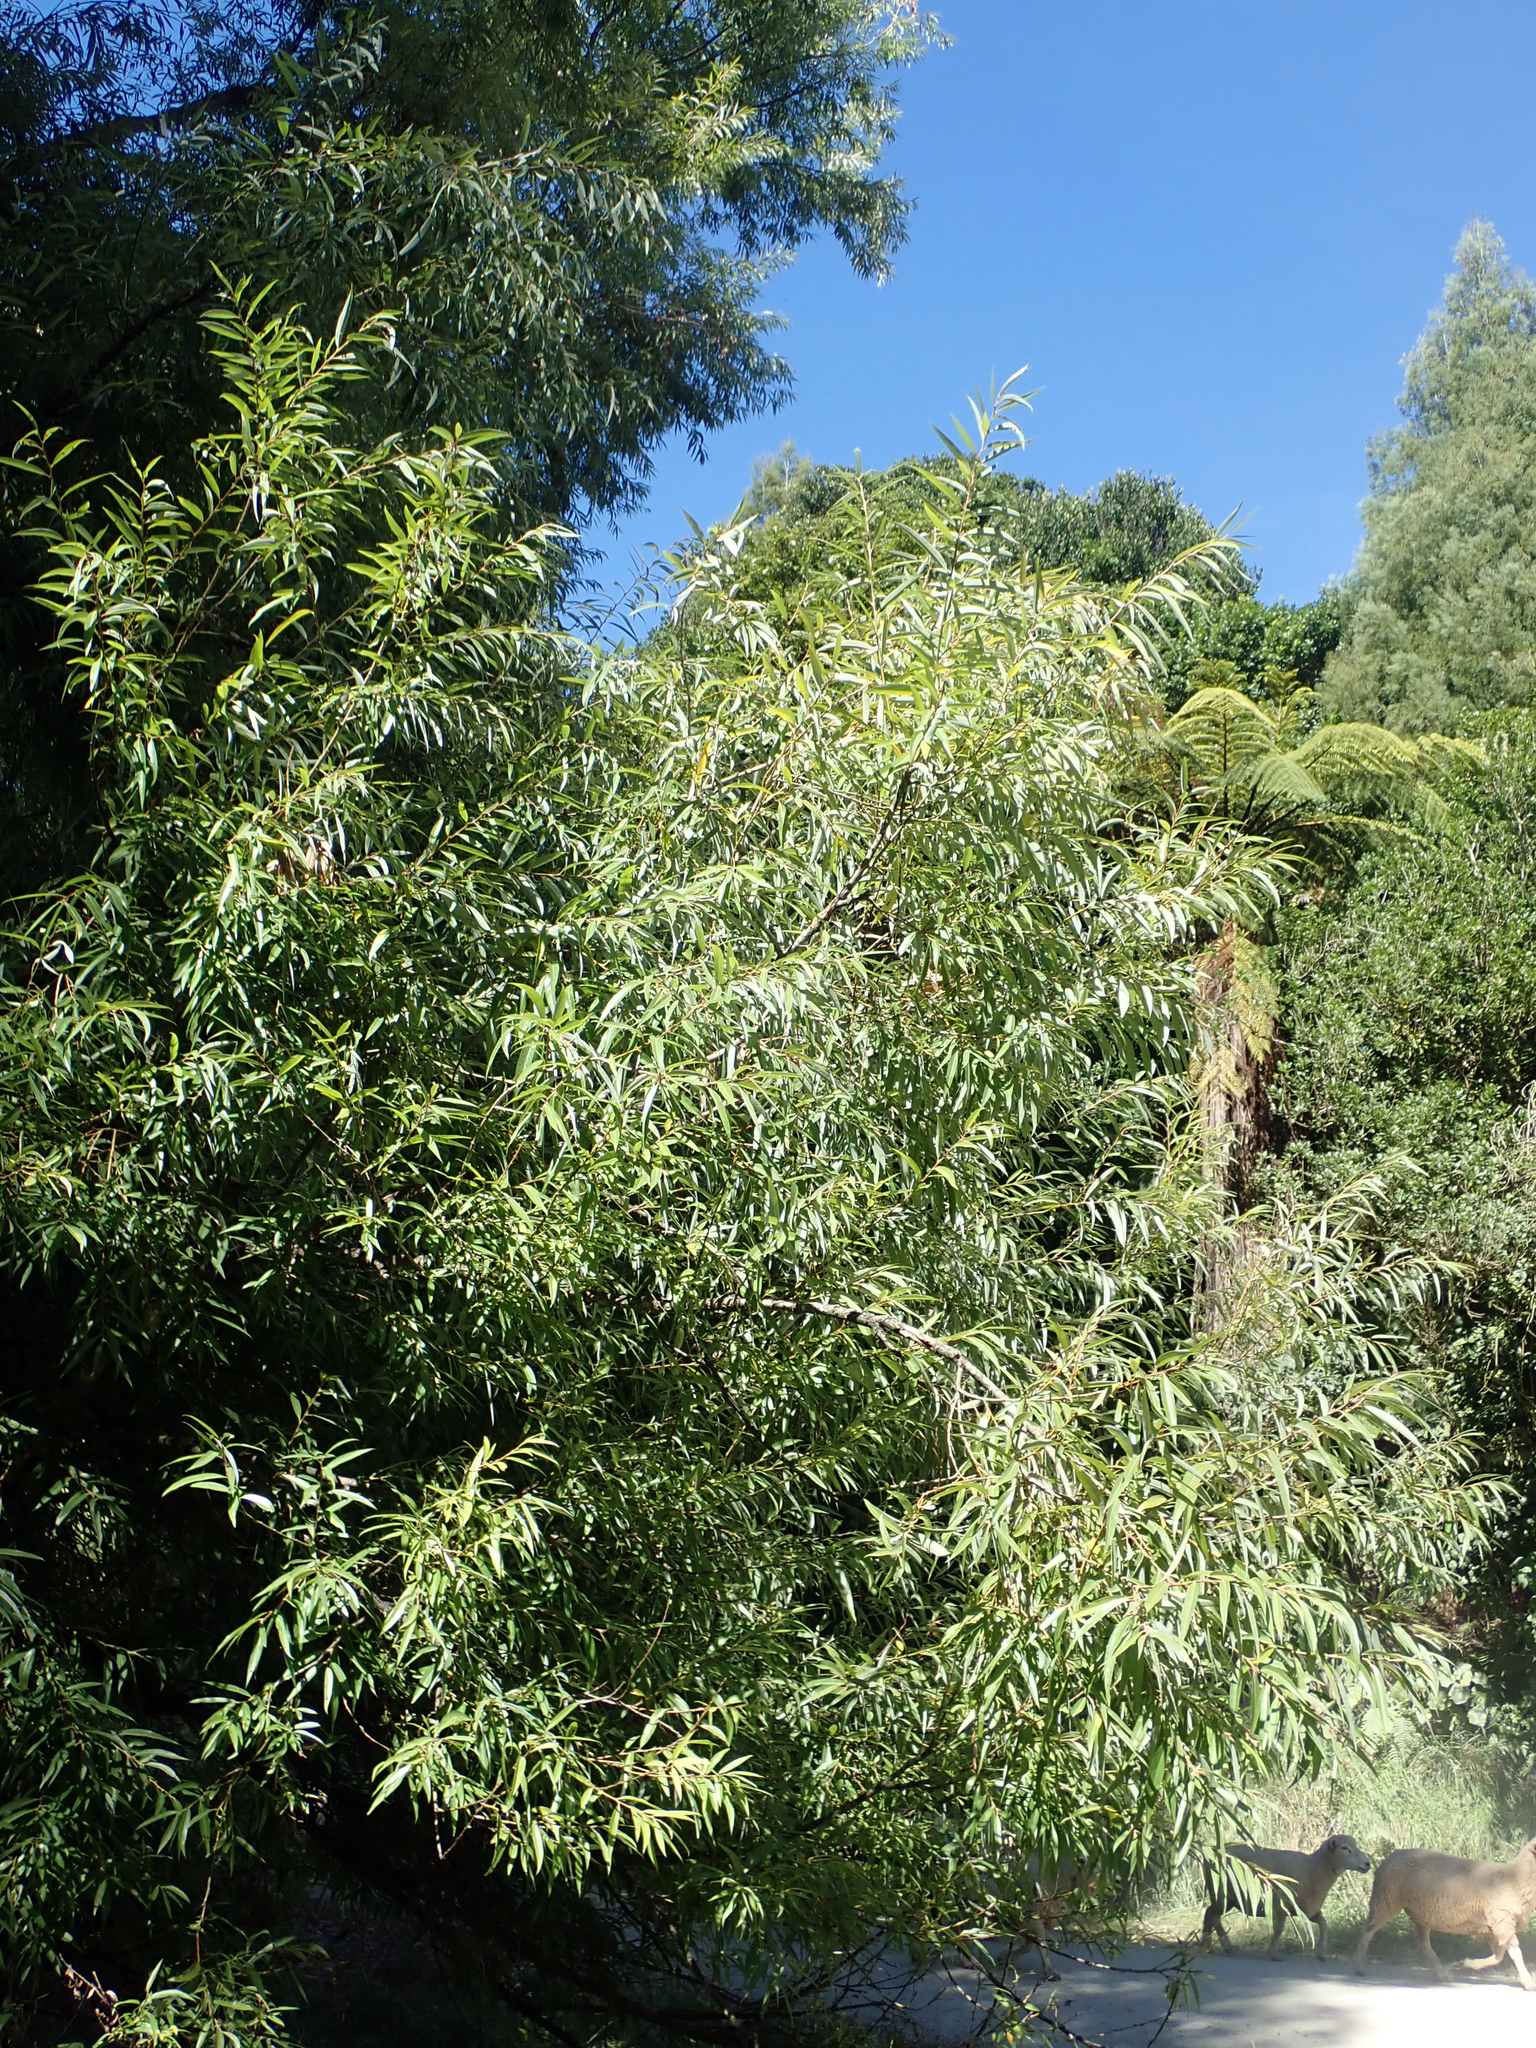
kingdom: Plantae
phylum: Tracheophyta
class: Magnoliopsida
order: Malpighiales
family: Salicaceae
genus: Salix
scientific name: Salix fragilis
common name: Crack willow
